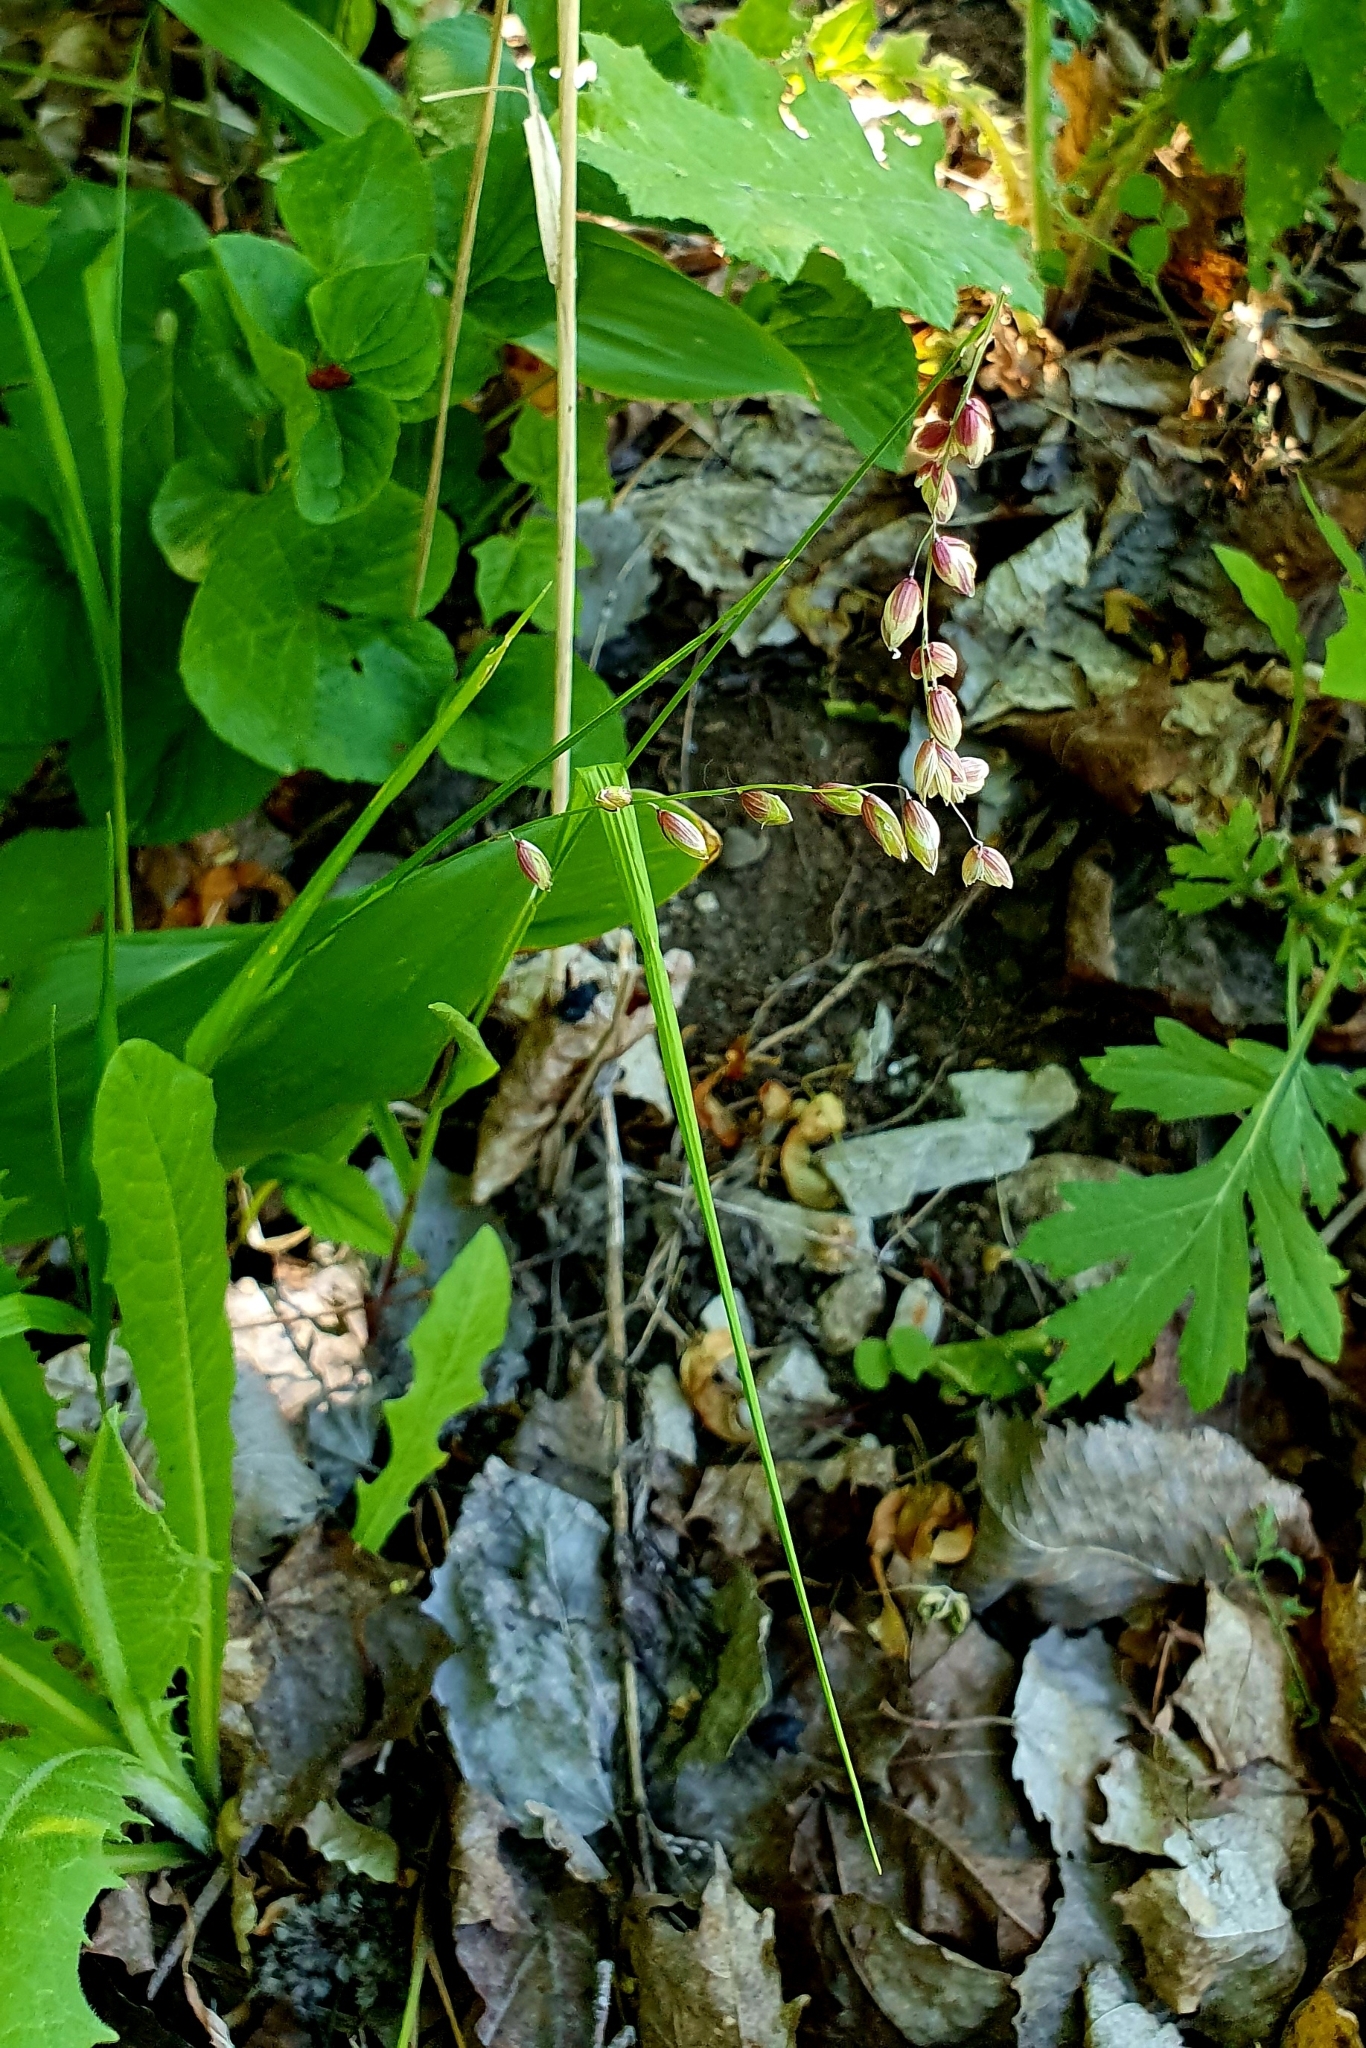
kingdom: Plantae
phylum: Tracheophyta
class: Liliopsida
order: Poales
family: Poaceae
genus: Melica
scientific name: Melica nutans
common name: Mountain melick
